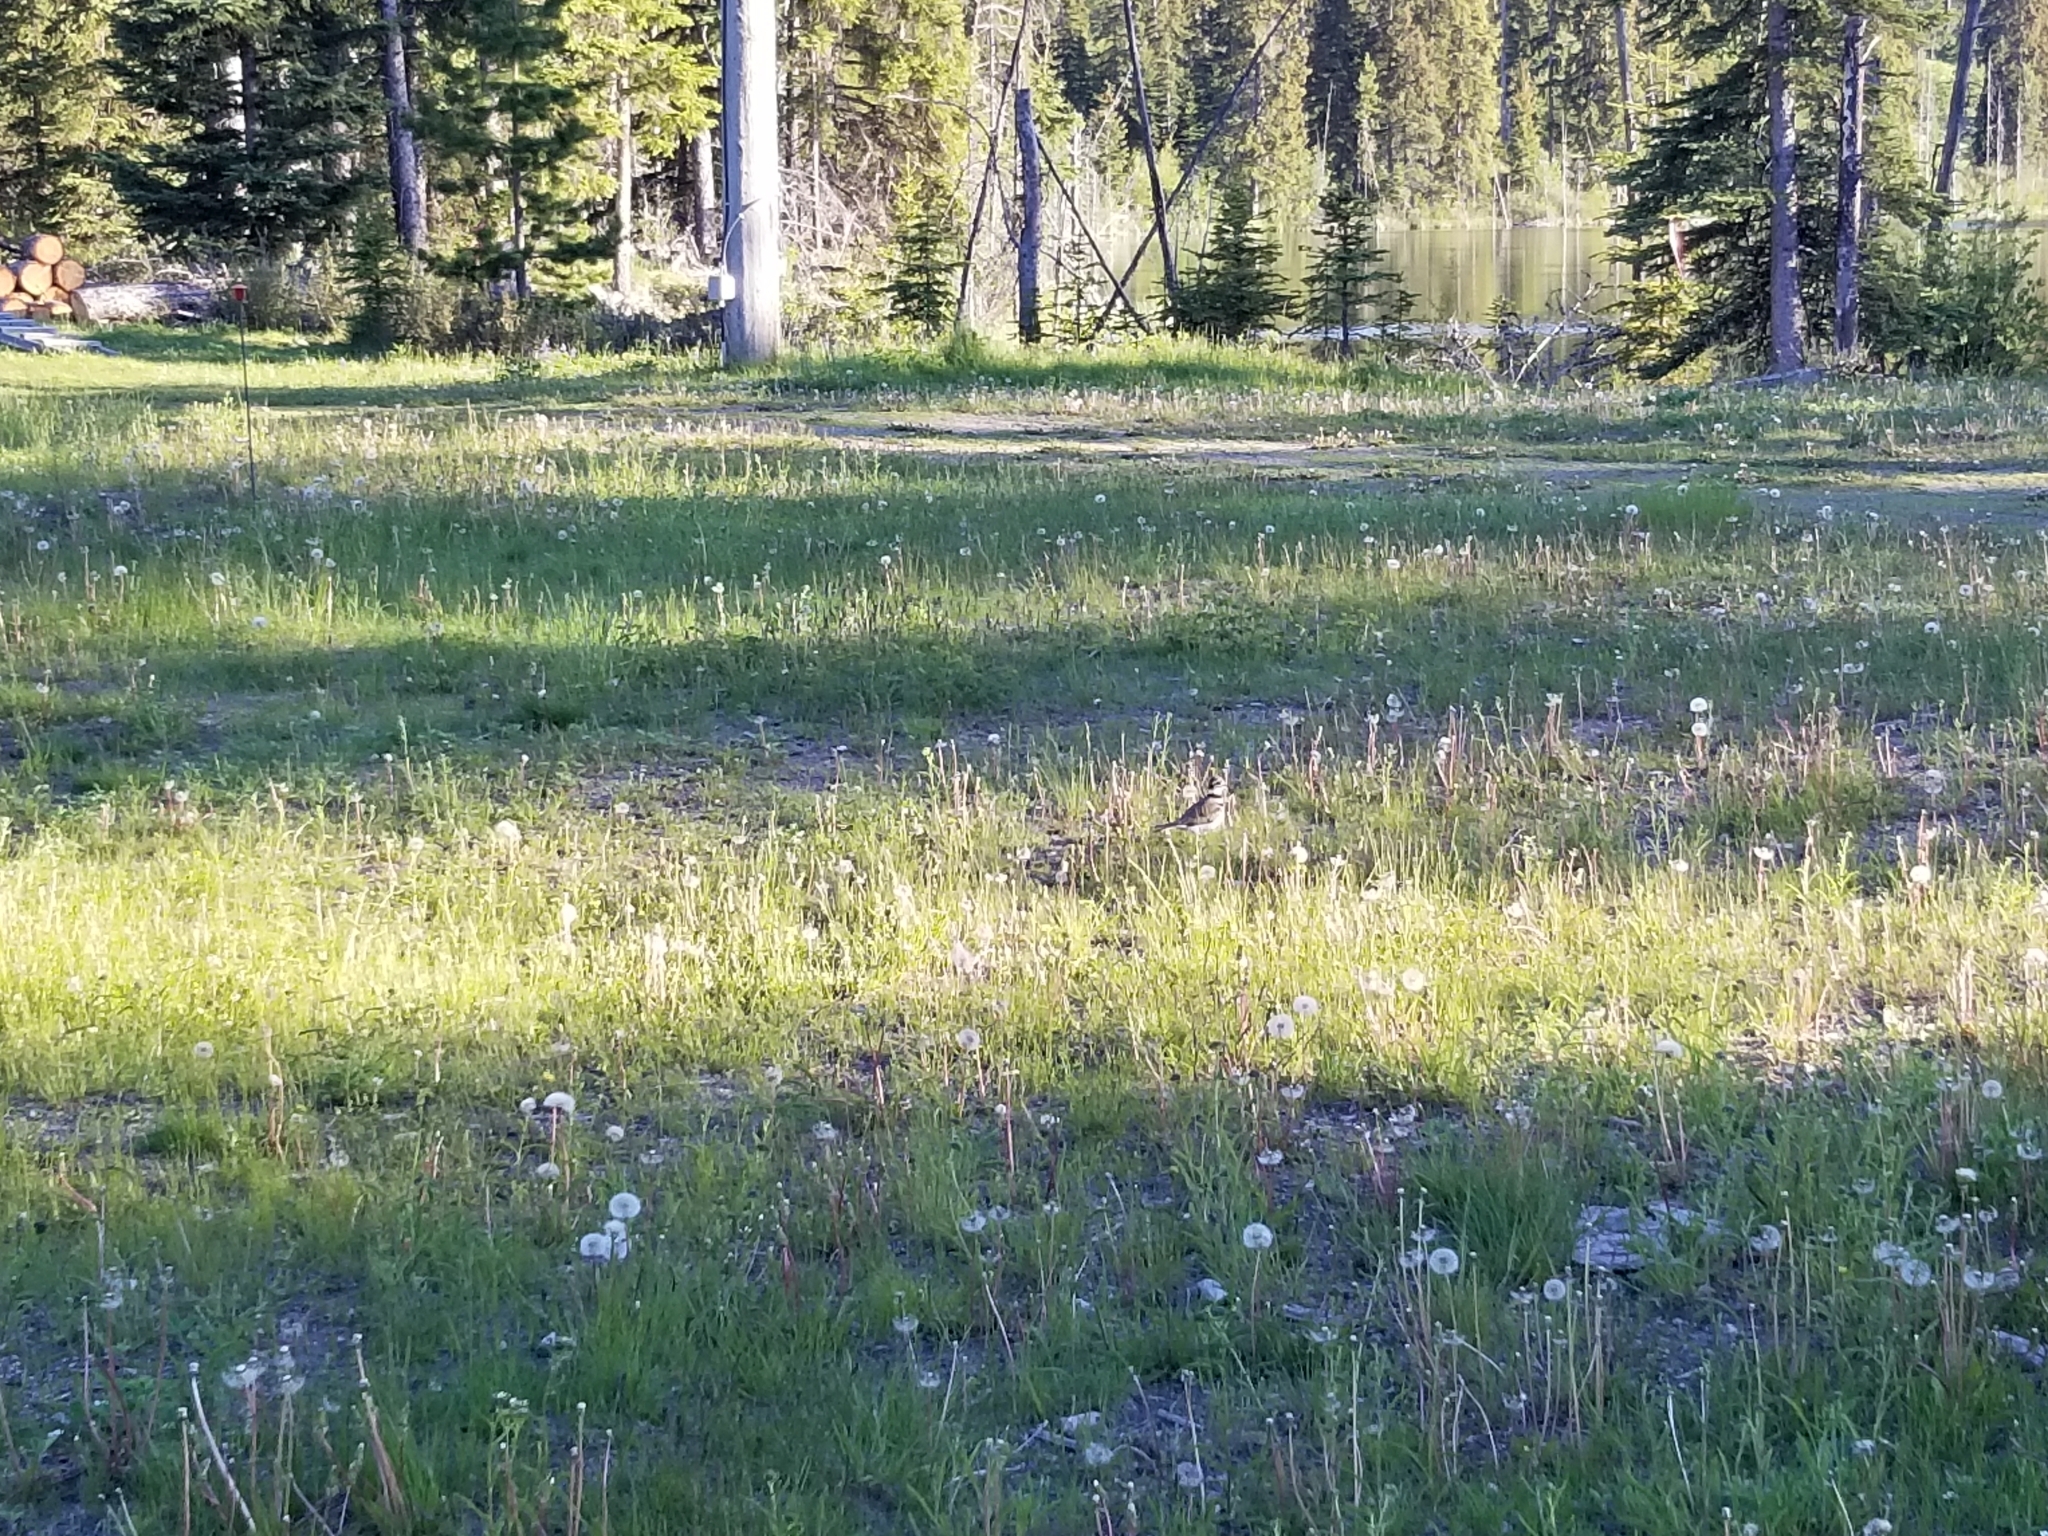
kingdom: Animalia
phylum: Chordata
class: Aves
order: Charadriiformes
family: Charadriidae
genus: Charadrius
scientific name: Charadrius vociferus
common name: Killdeer
